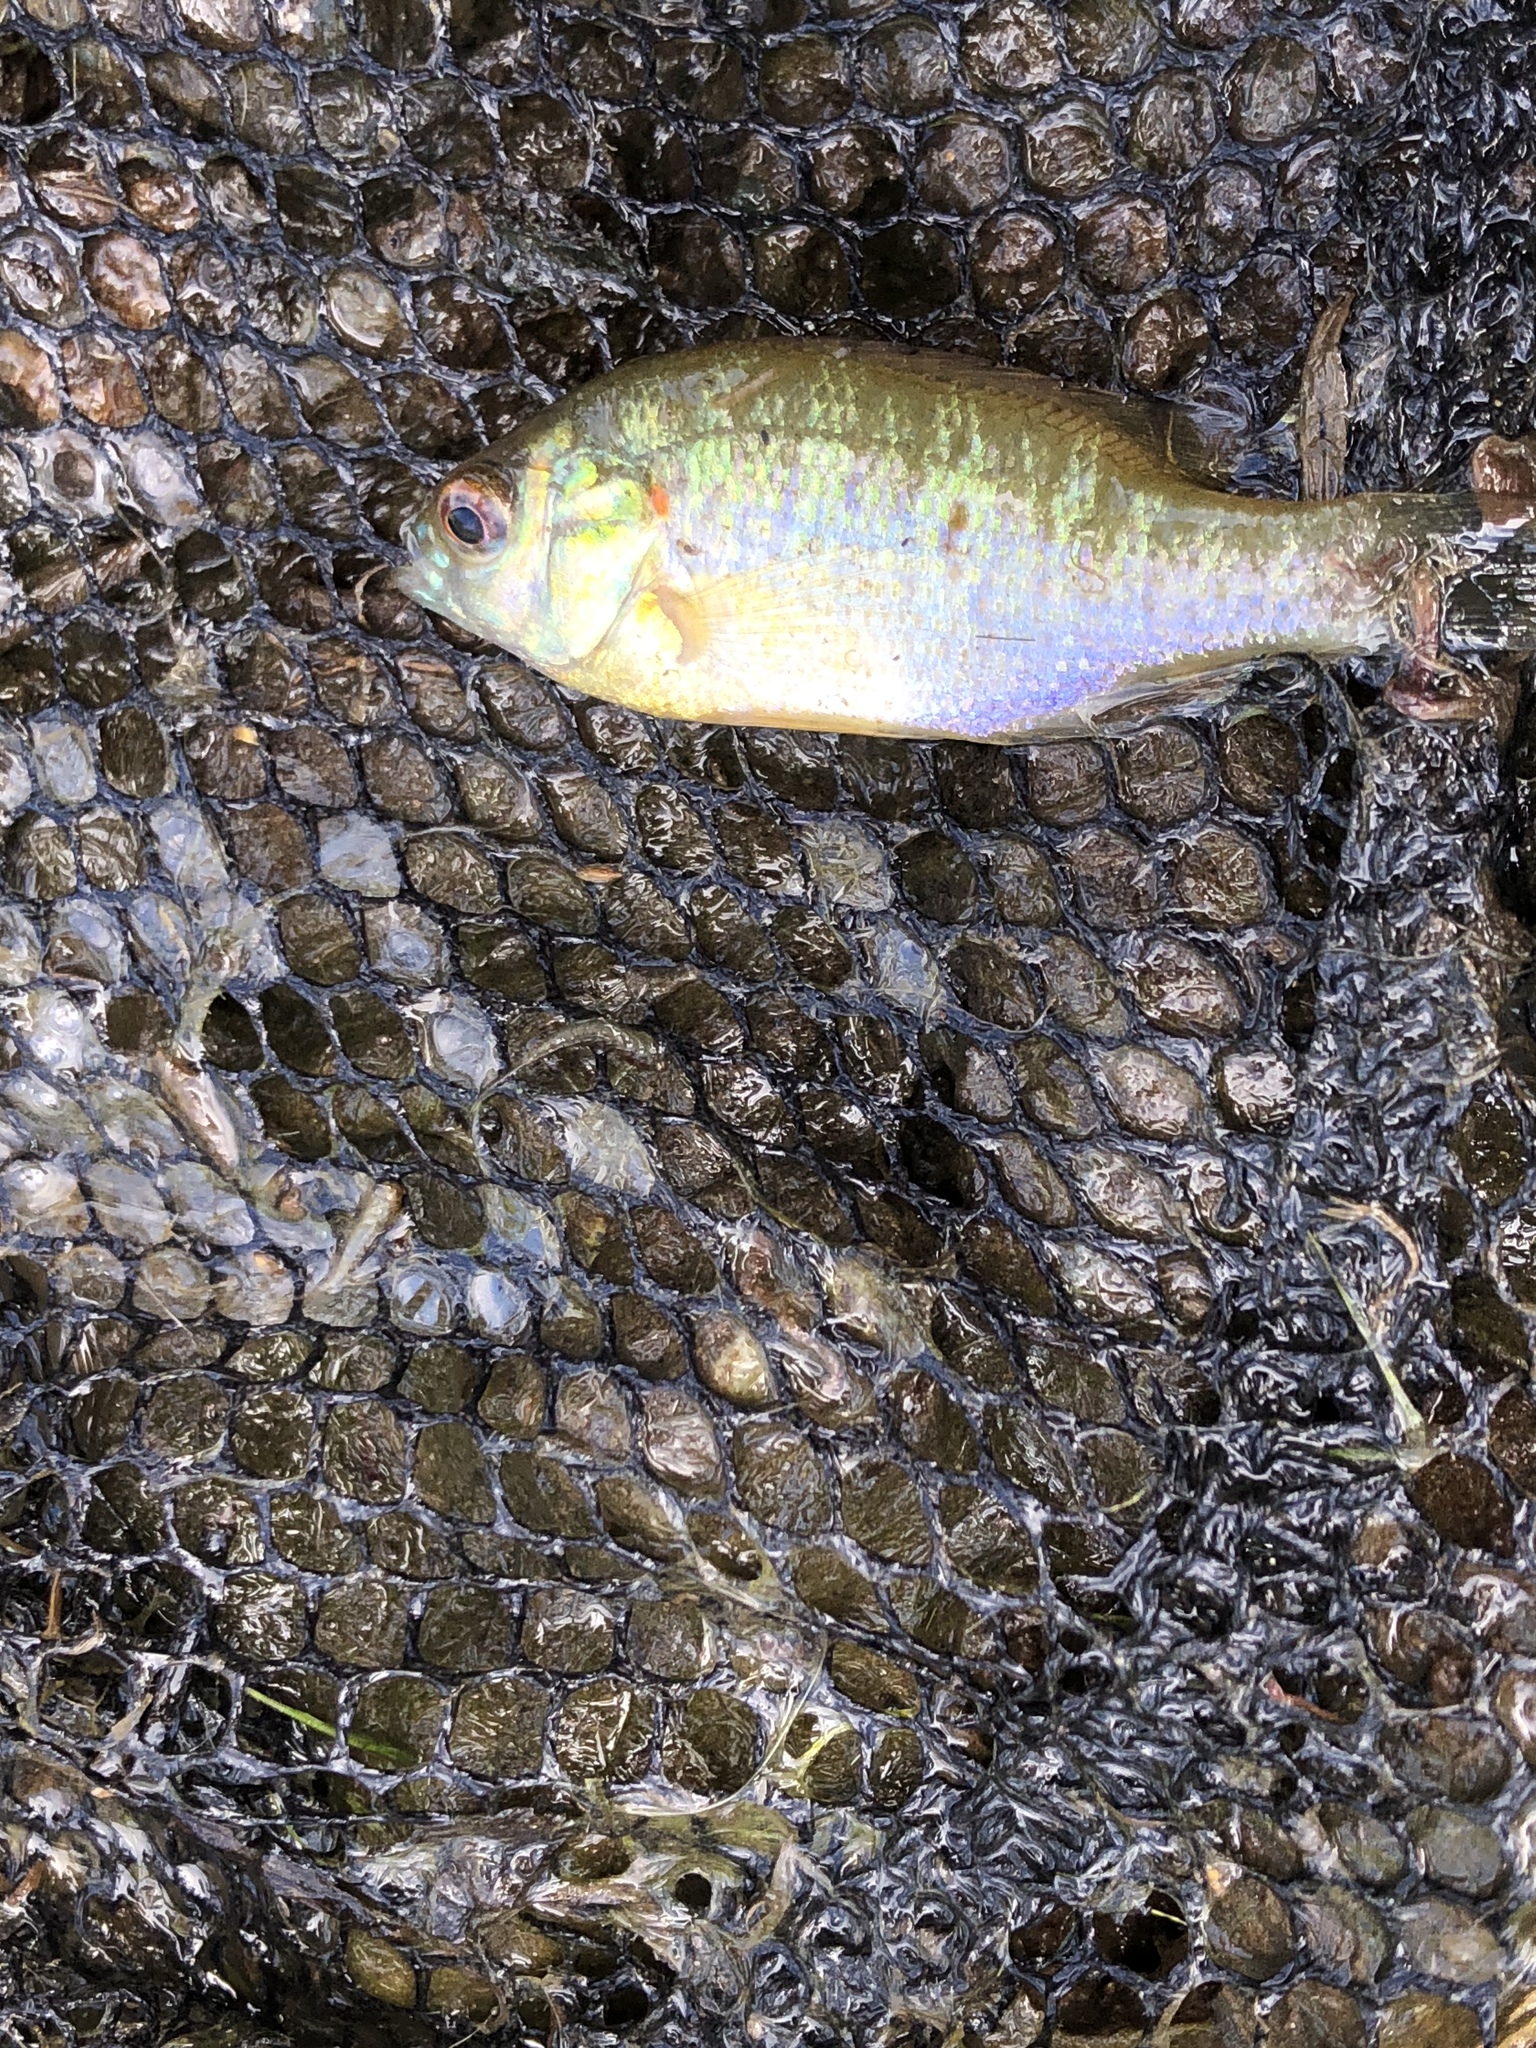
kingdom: Animalia
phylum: Chordata
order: Perciformes
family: Centrarchidae
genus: Lepomis
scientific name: Lepomis gibbosus
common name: Pumpkinseed
